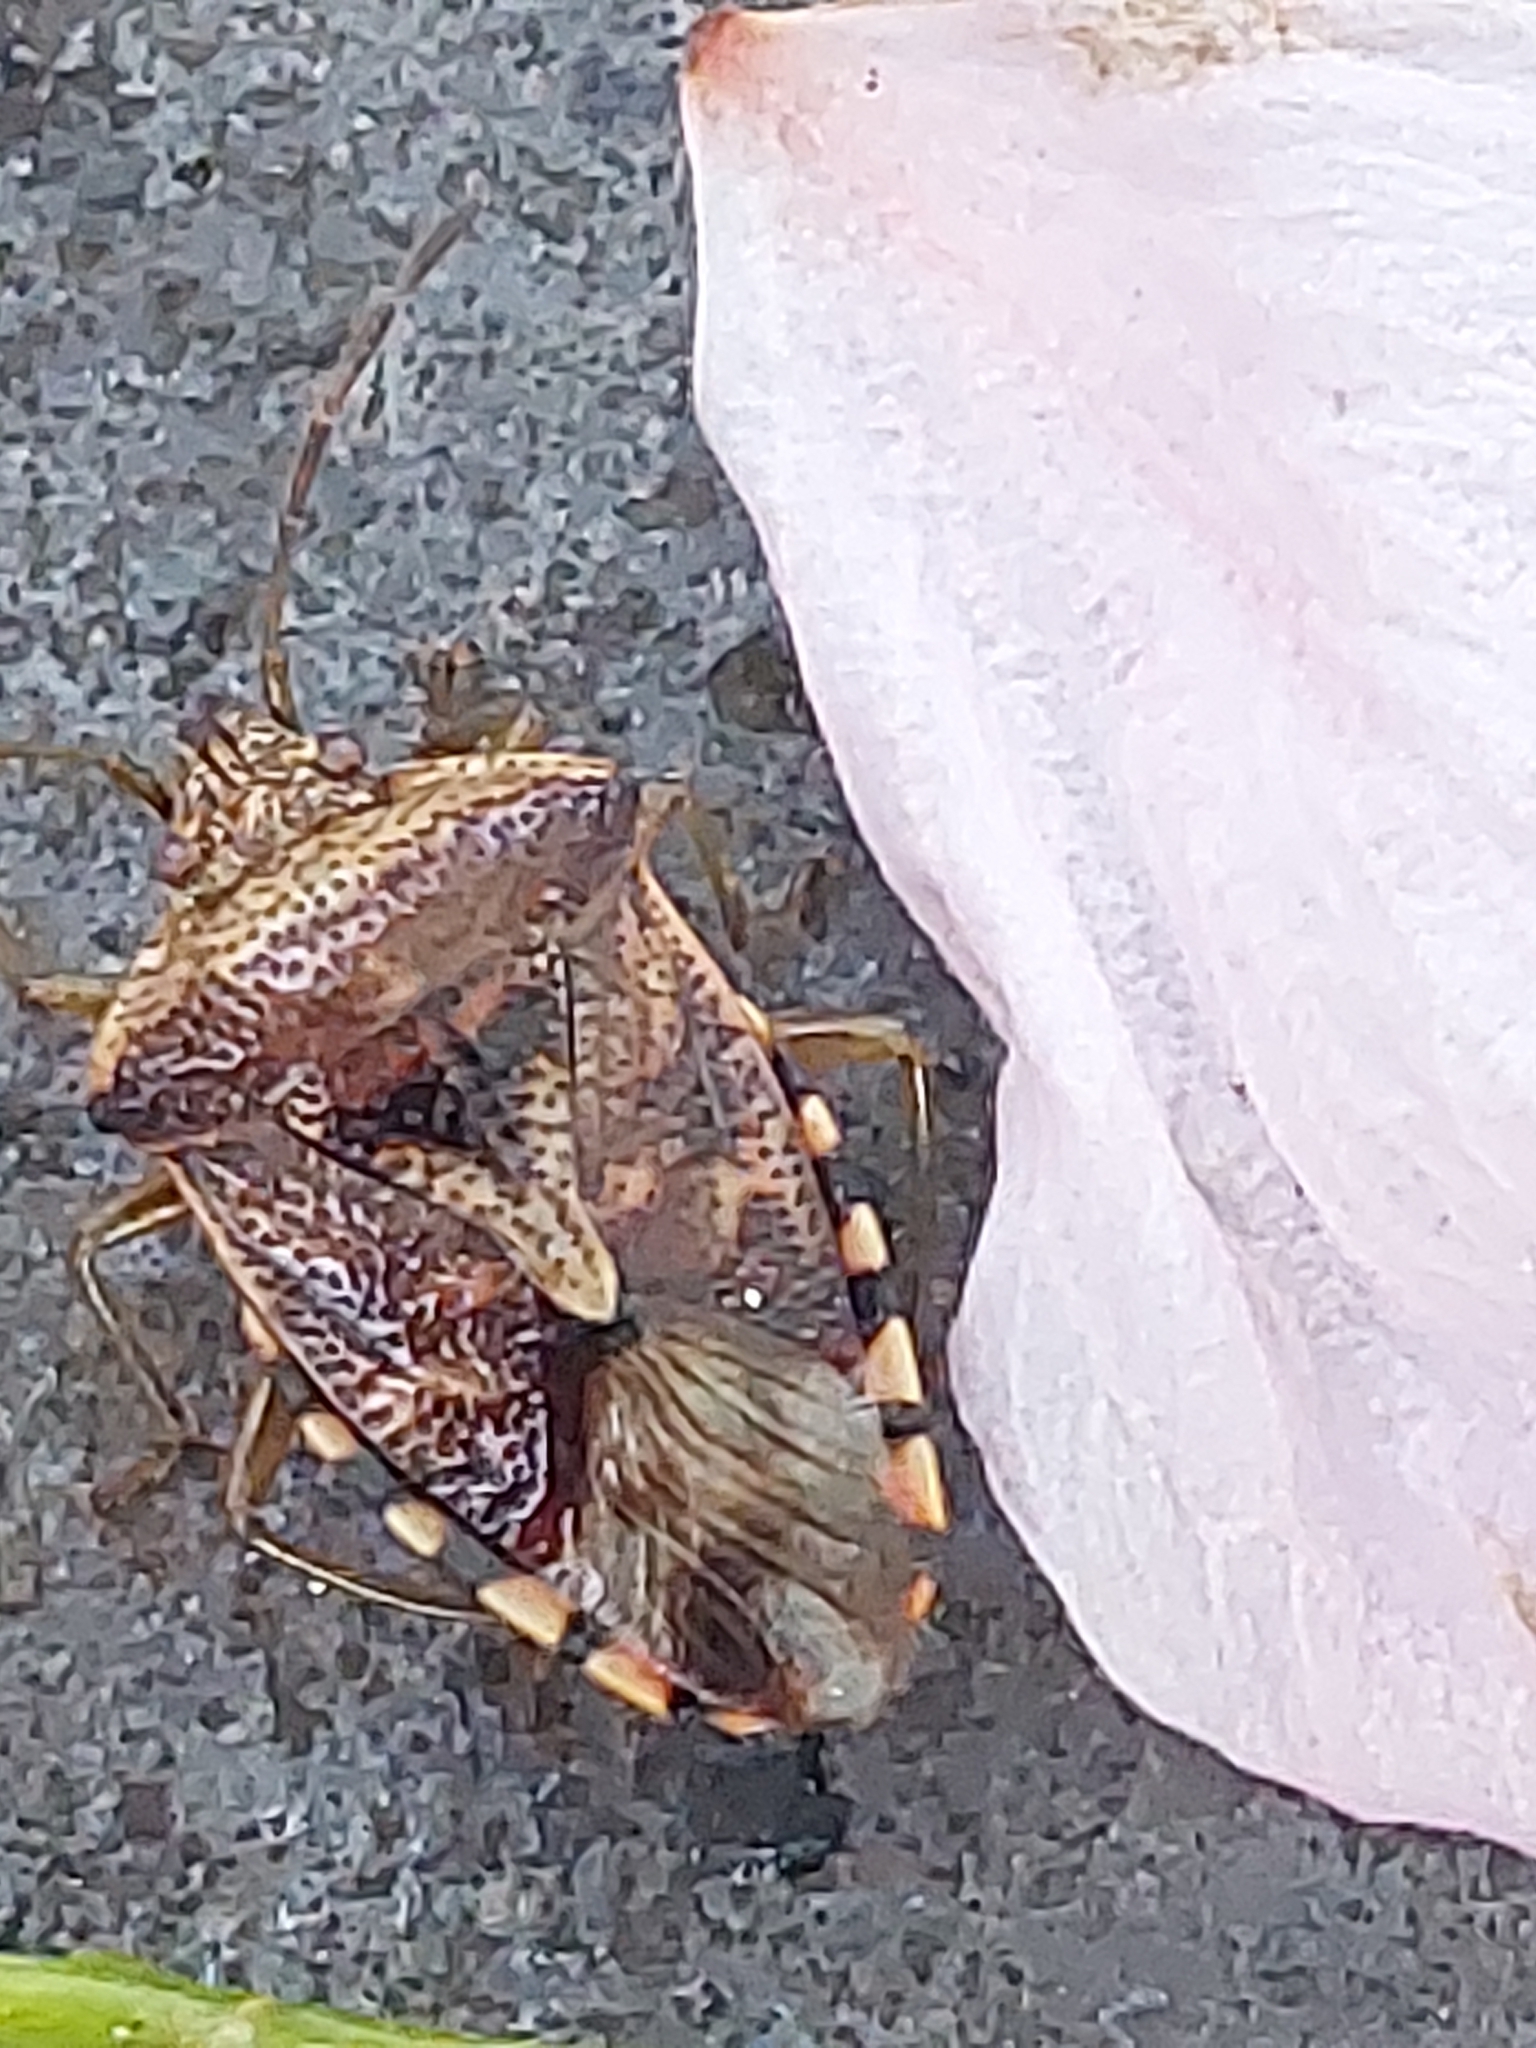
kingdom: Animalia
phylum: Arthropoda
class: Insecta
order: Hemiptera
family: Acanthosomatidae
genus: Elasmucha
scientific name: Elasmucha grisea
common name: Parent bug
